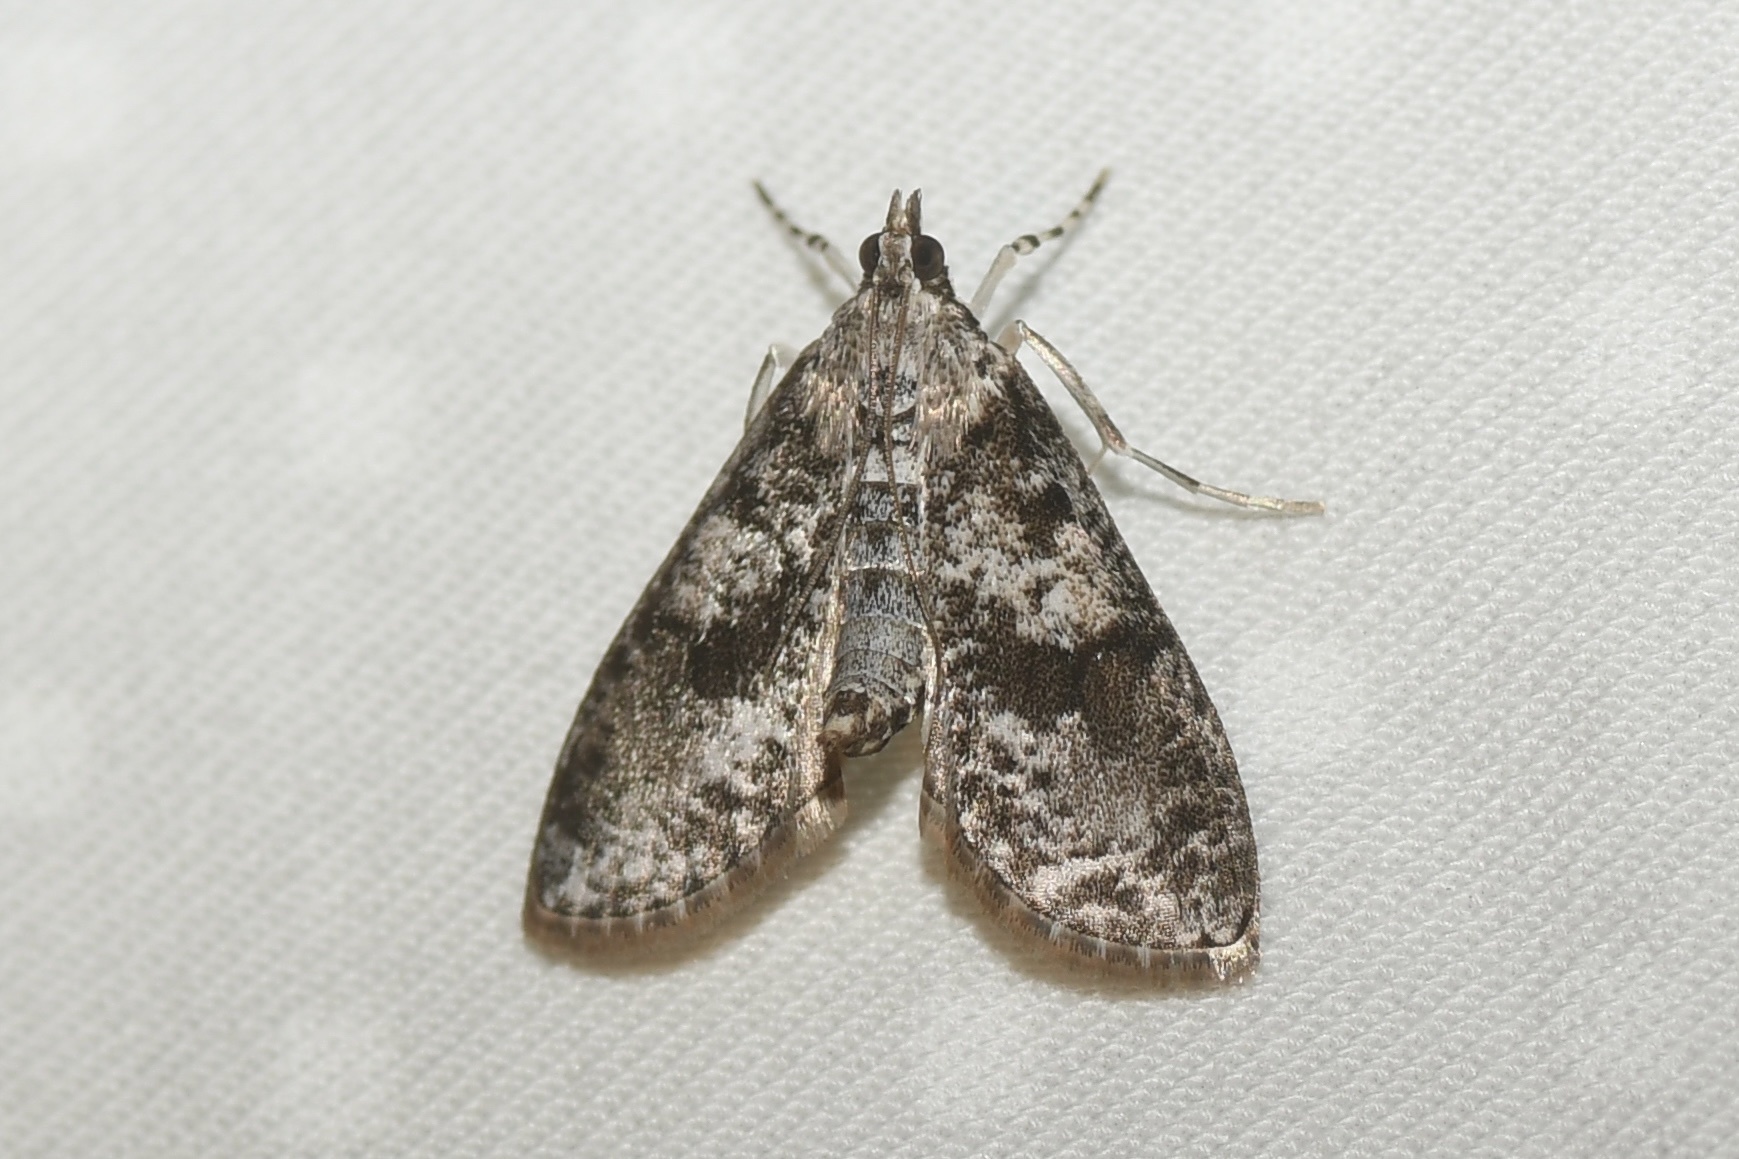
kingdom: Animalia
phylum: Arthropoda
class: Insecta
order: Lepidoptera
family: Crambidae
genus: Palpita
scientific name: Palpita magniferalis
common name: Splendid palpita moth
